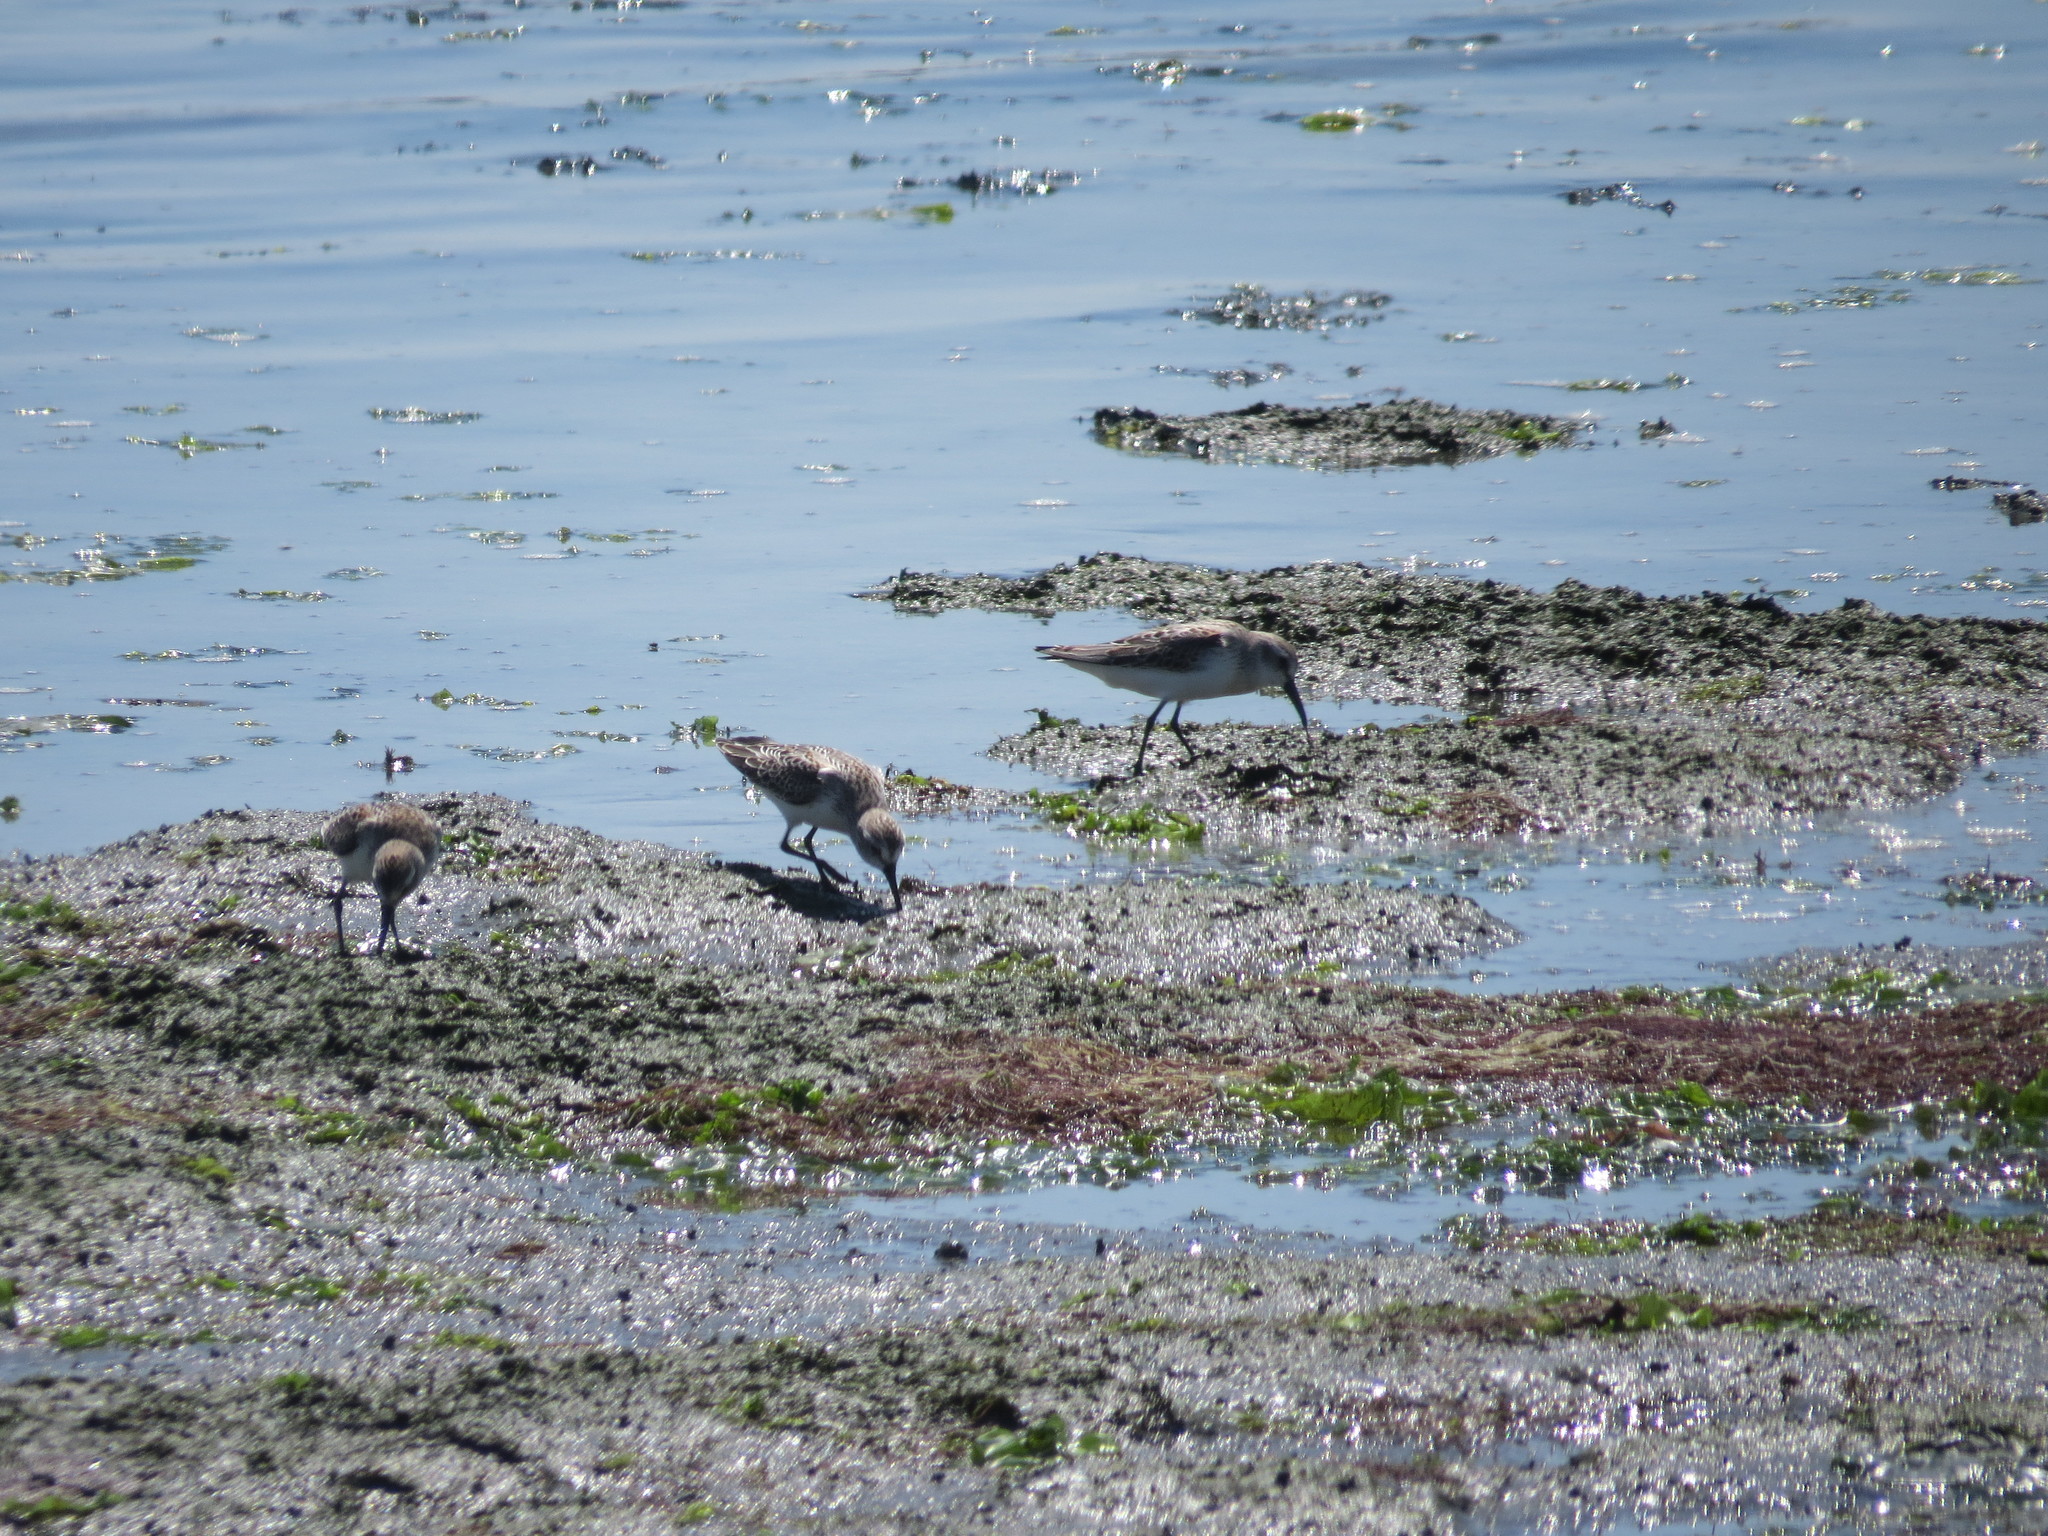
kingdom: Animalia
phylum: Chordata
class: Aves
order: Charadriiformes
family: Scolopacidae
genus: Calidris
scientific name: Calidris mauri
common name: Western sandpiper
